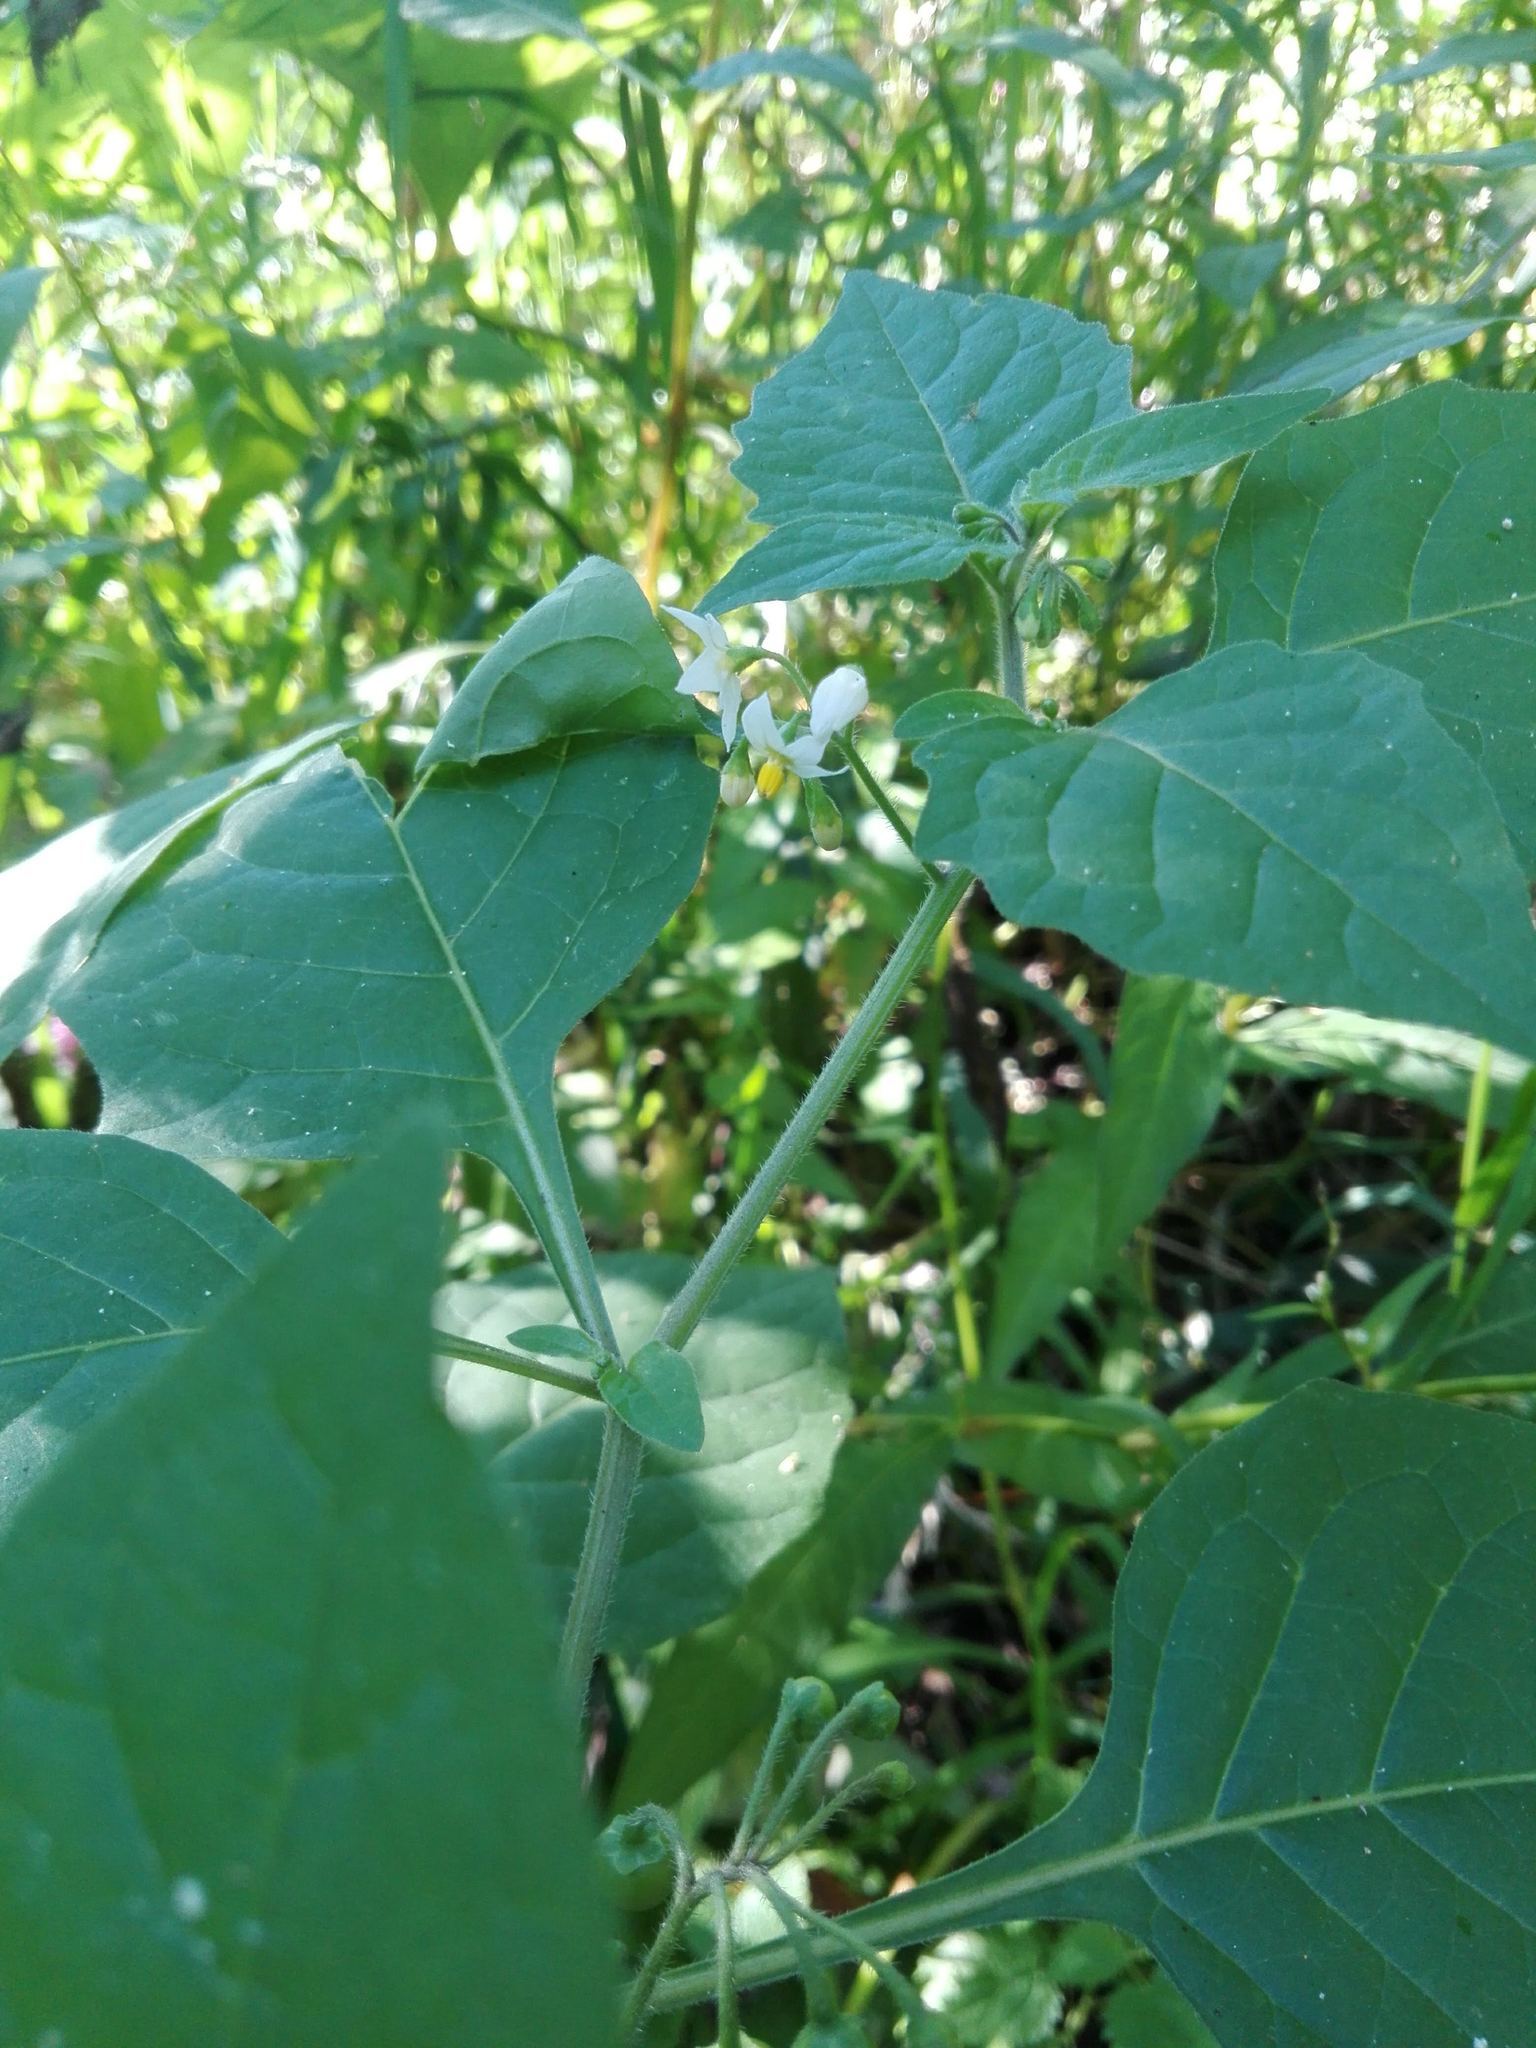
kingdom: Plantae
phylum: Tracheophyta
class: Magnoliopsida
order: Solanales
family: Solanaceae
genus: Solanum
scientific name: Solanum nigrum
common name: Black nightshade
